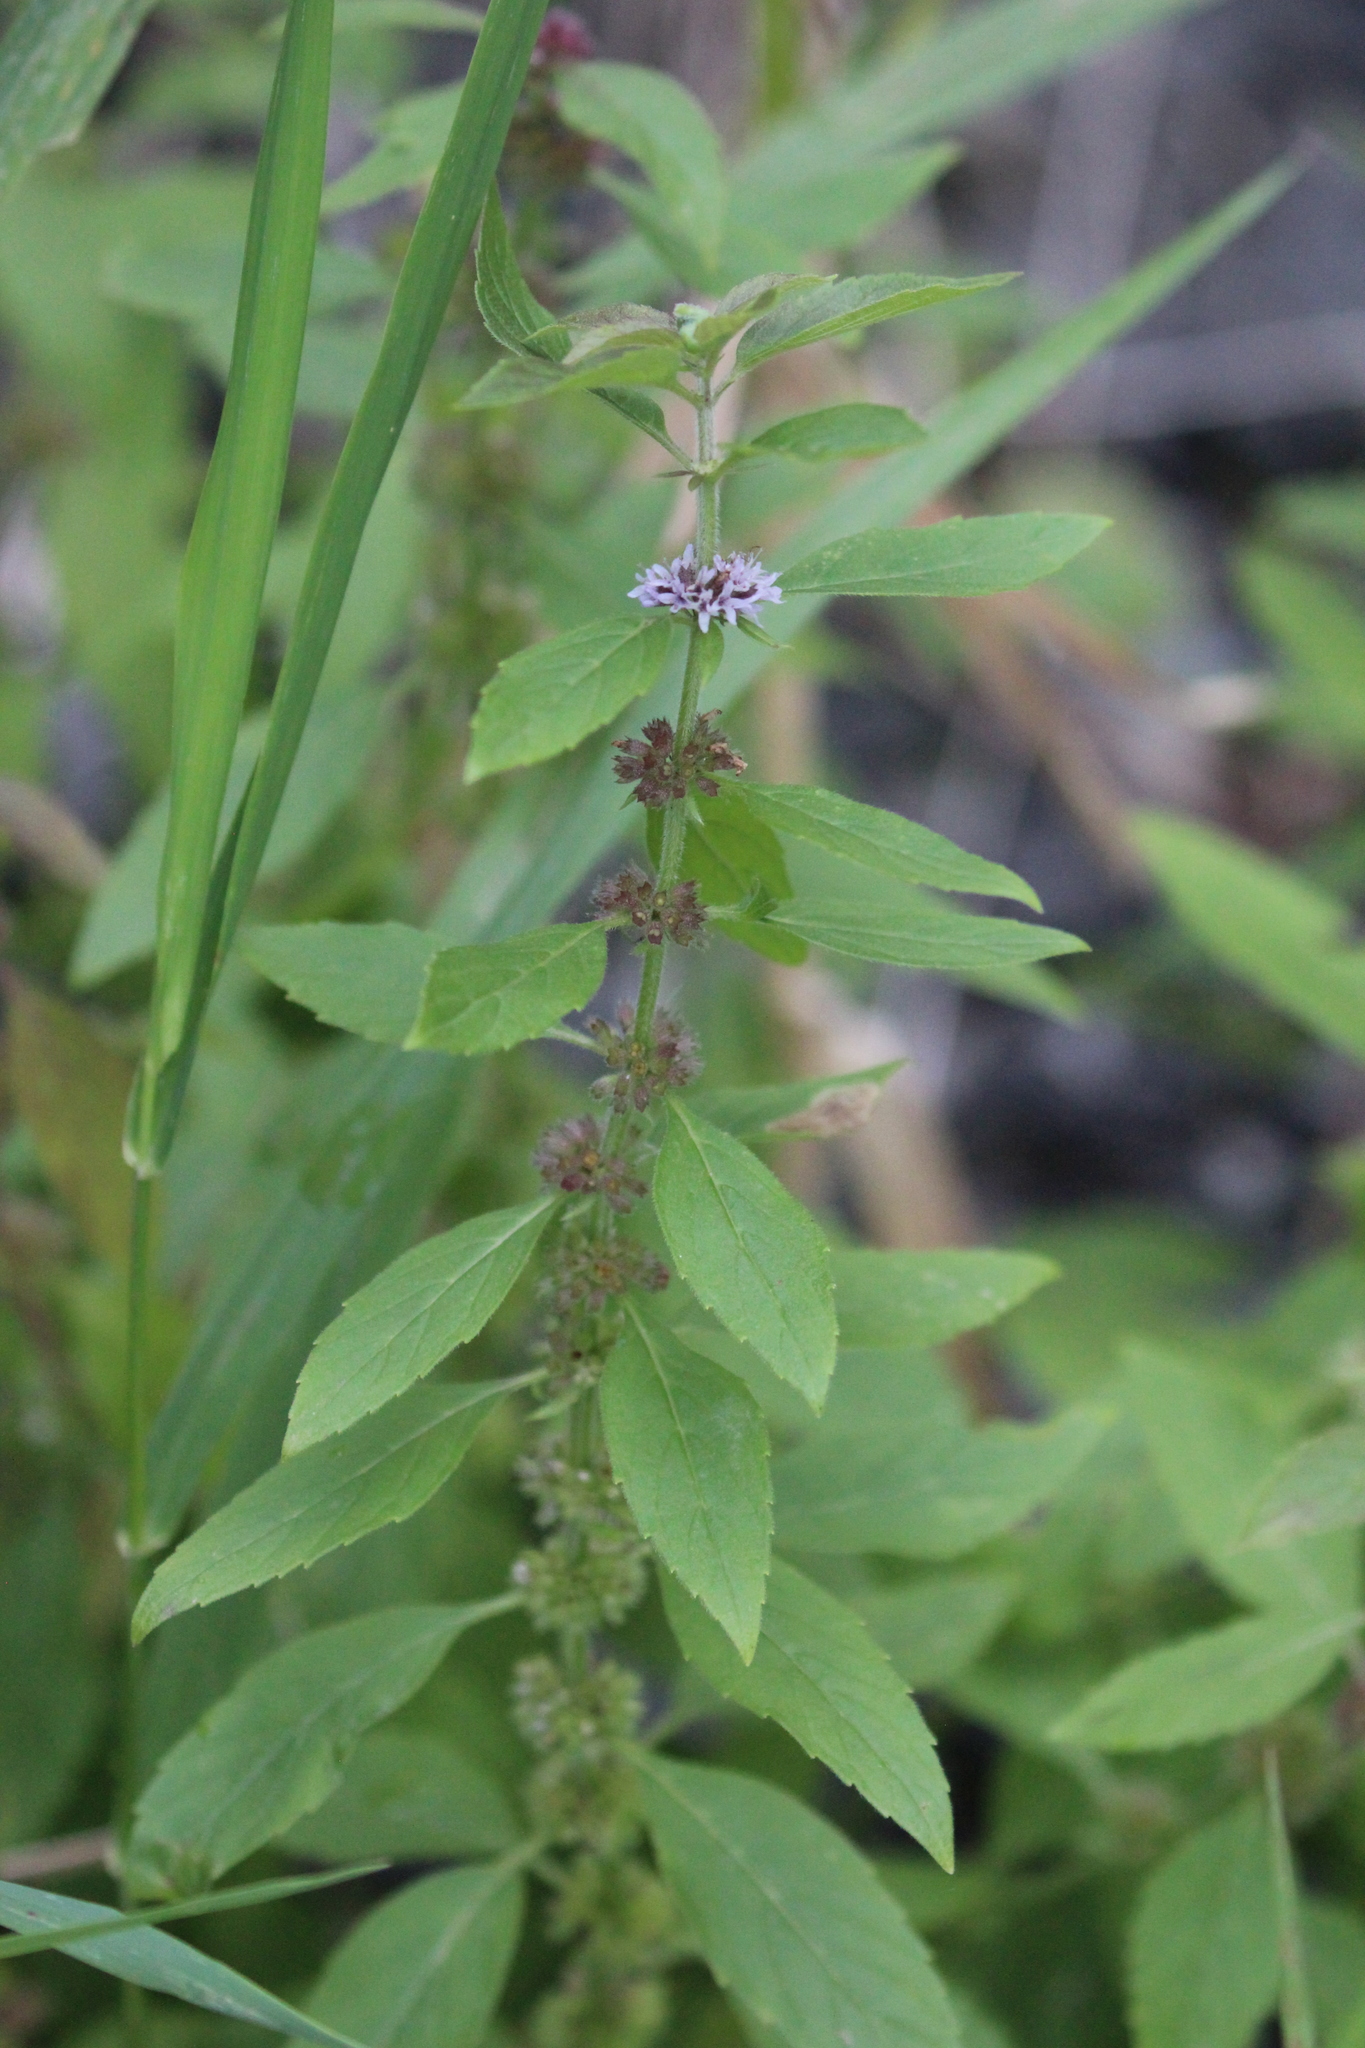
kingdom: Plantae
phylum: Tracheophyta
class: Magnoliopsida
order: Lamiales
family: Lamiaceae
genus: Mentha
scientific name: Mentha canadensis
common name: American corn mint
